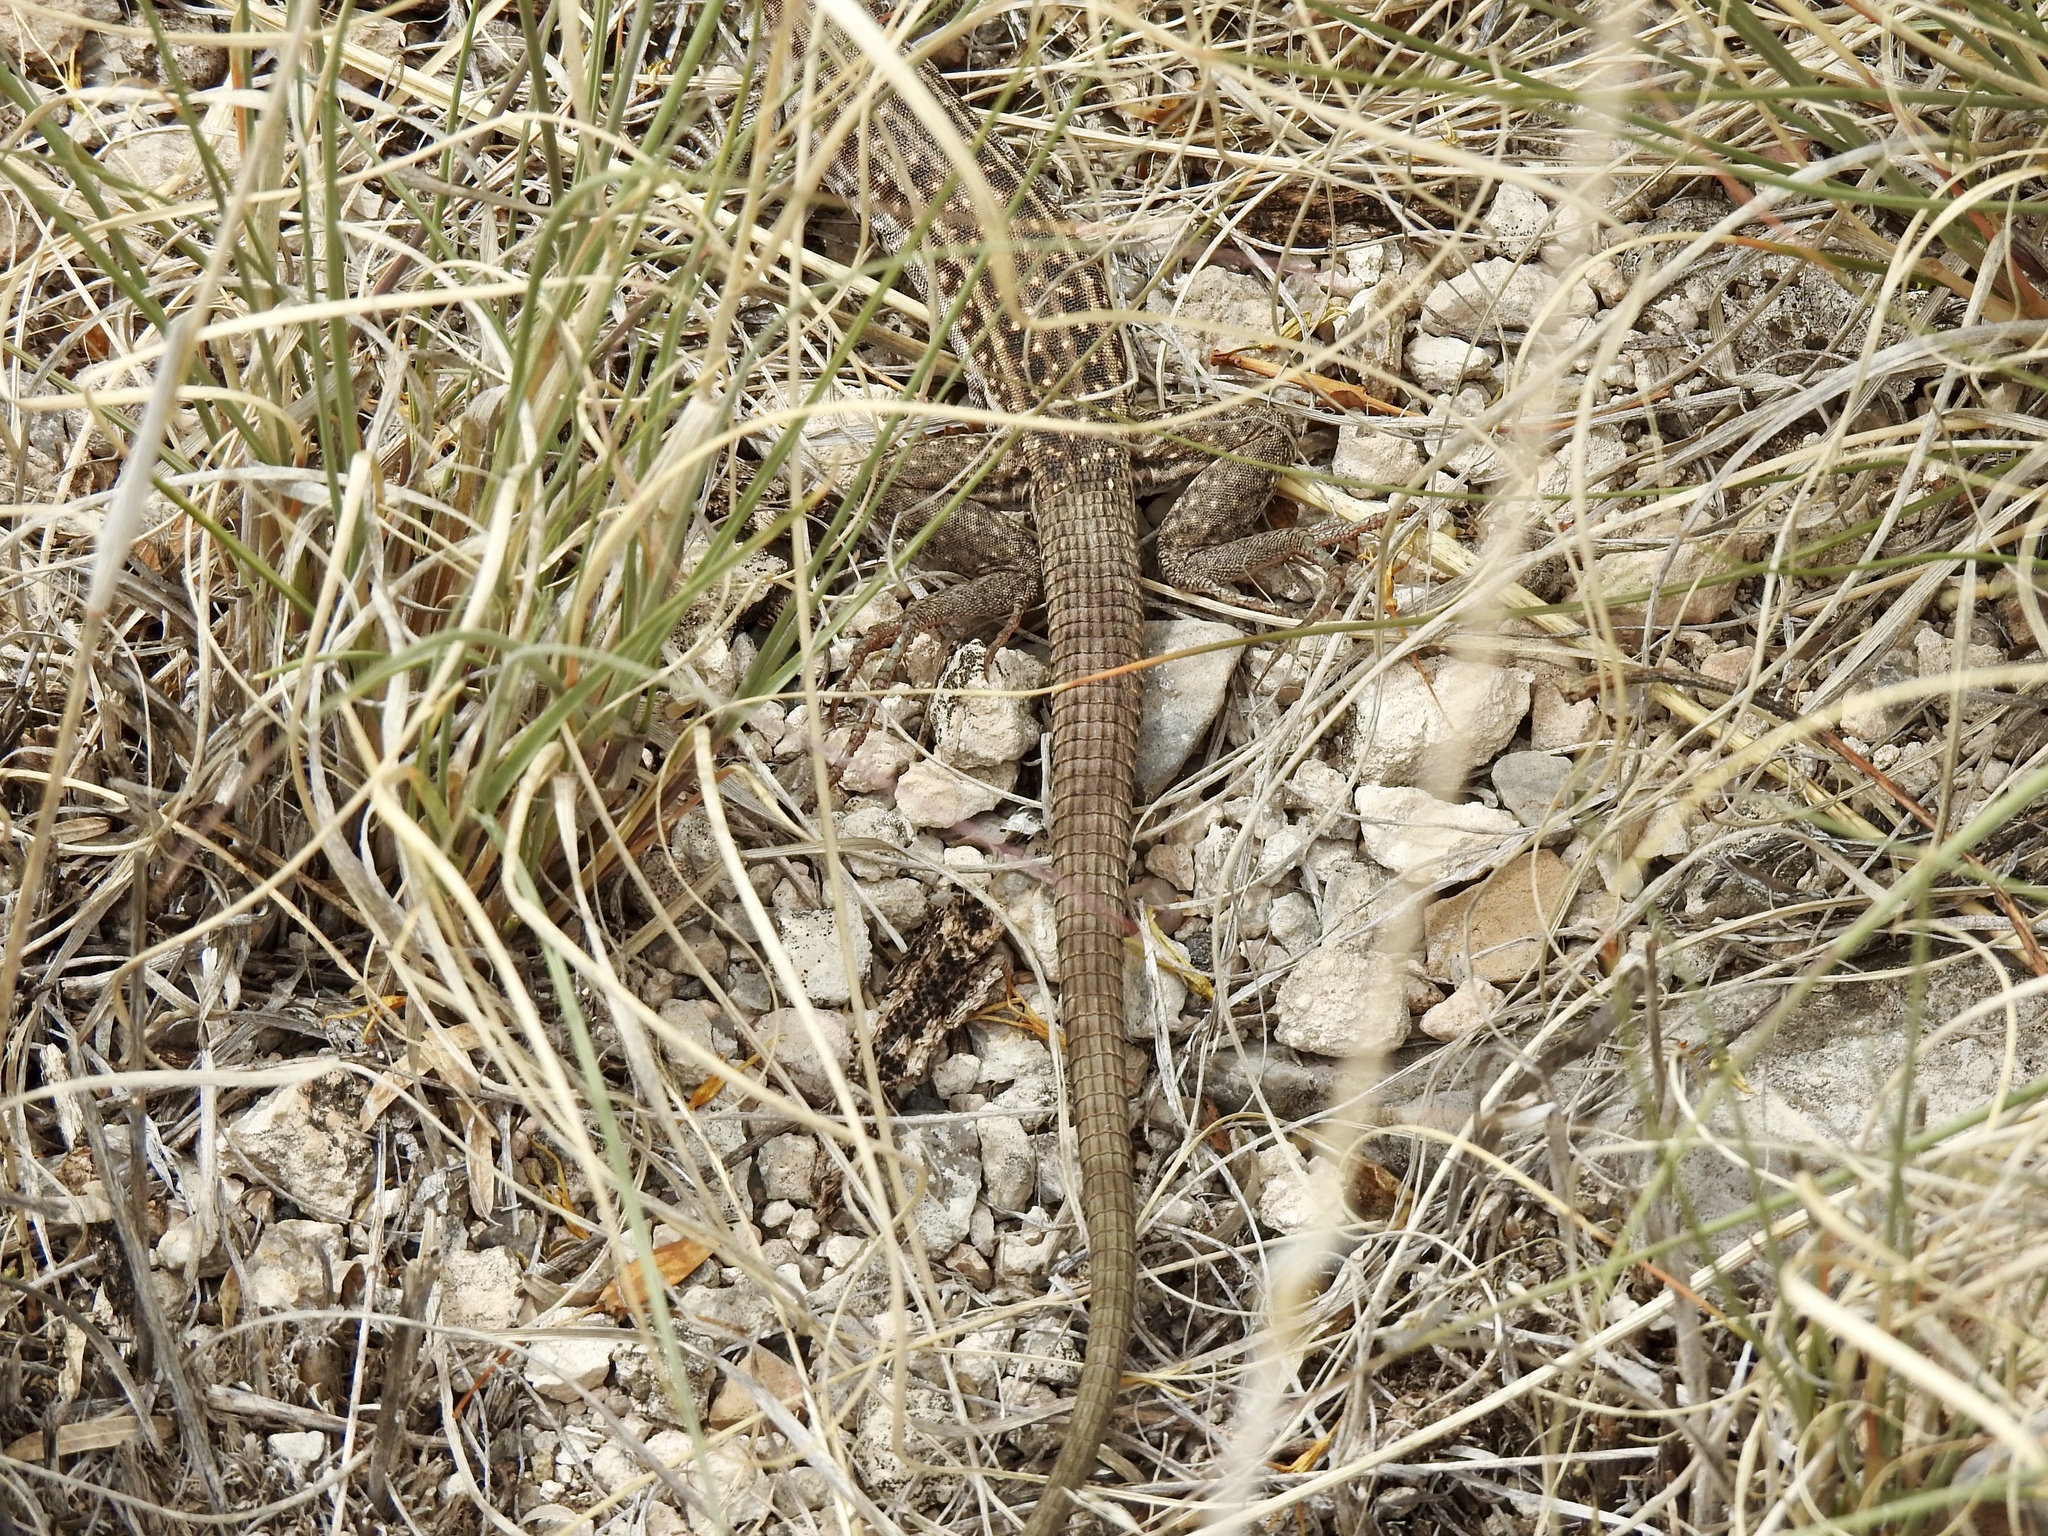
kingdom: Animalia
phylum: Chordata
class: Squamata
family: Teiidae
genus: Aspidoscelis
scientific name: Aspidoscelis exsanguis
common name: Chihuahuan spotted whiptail
